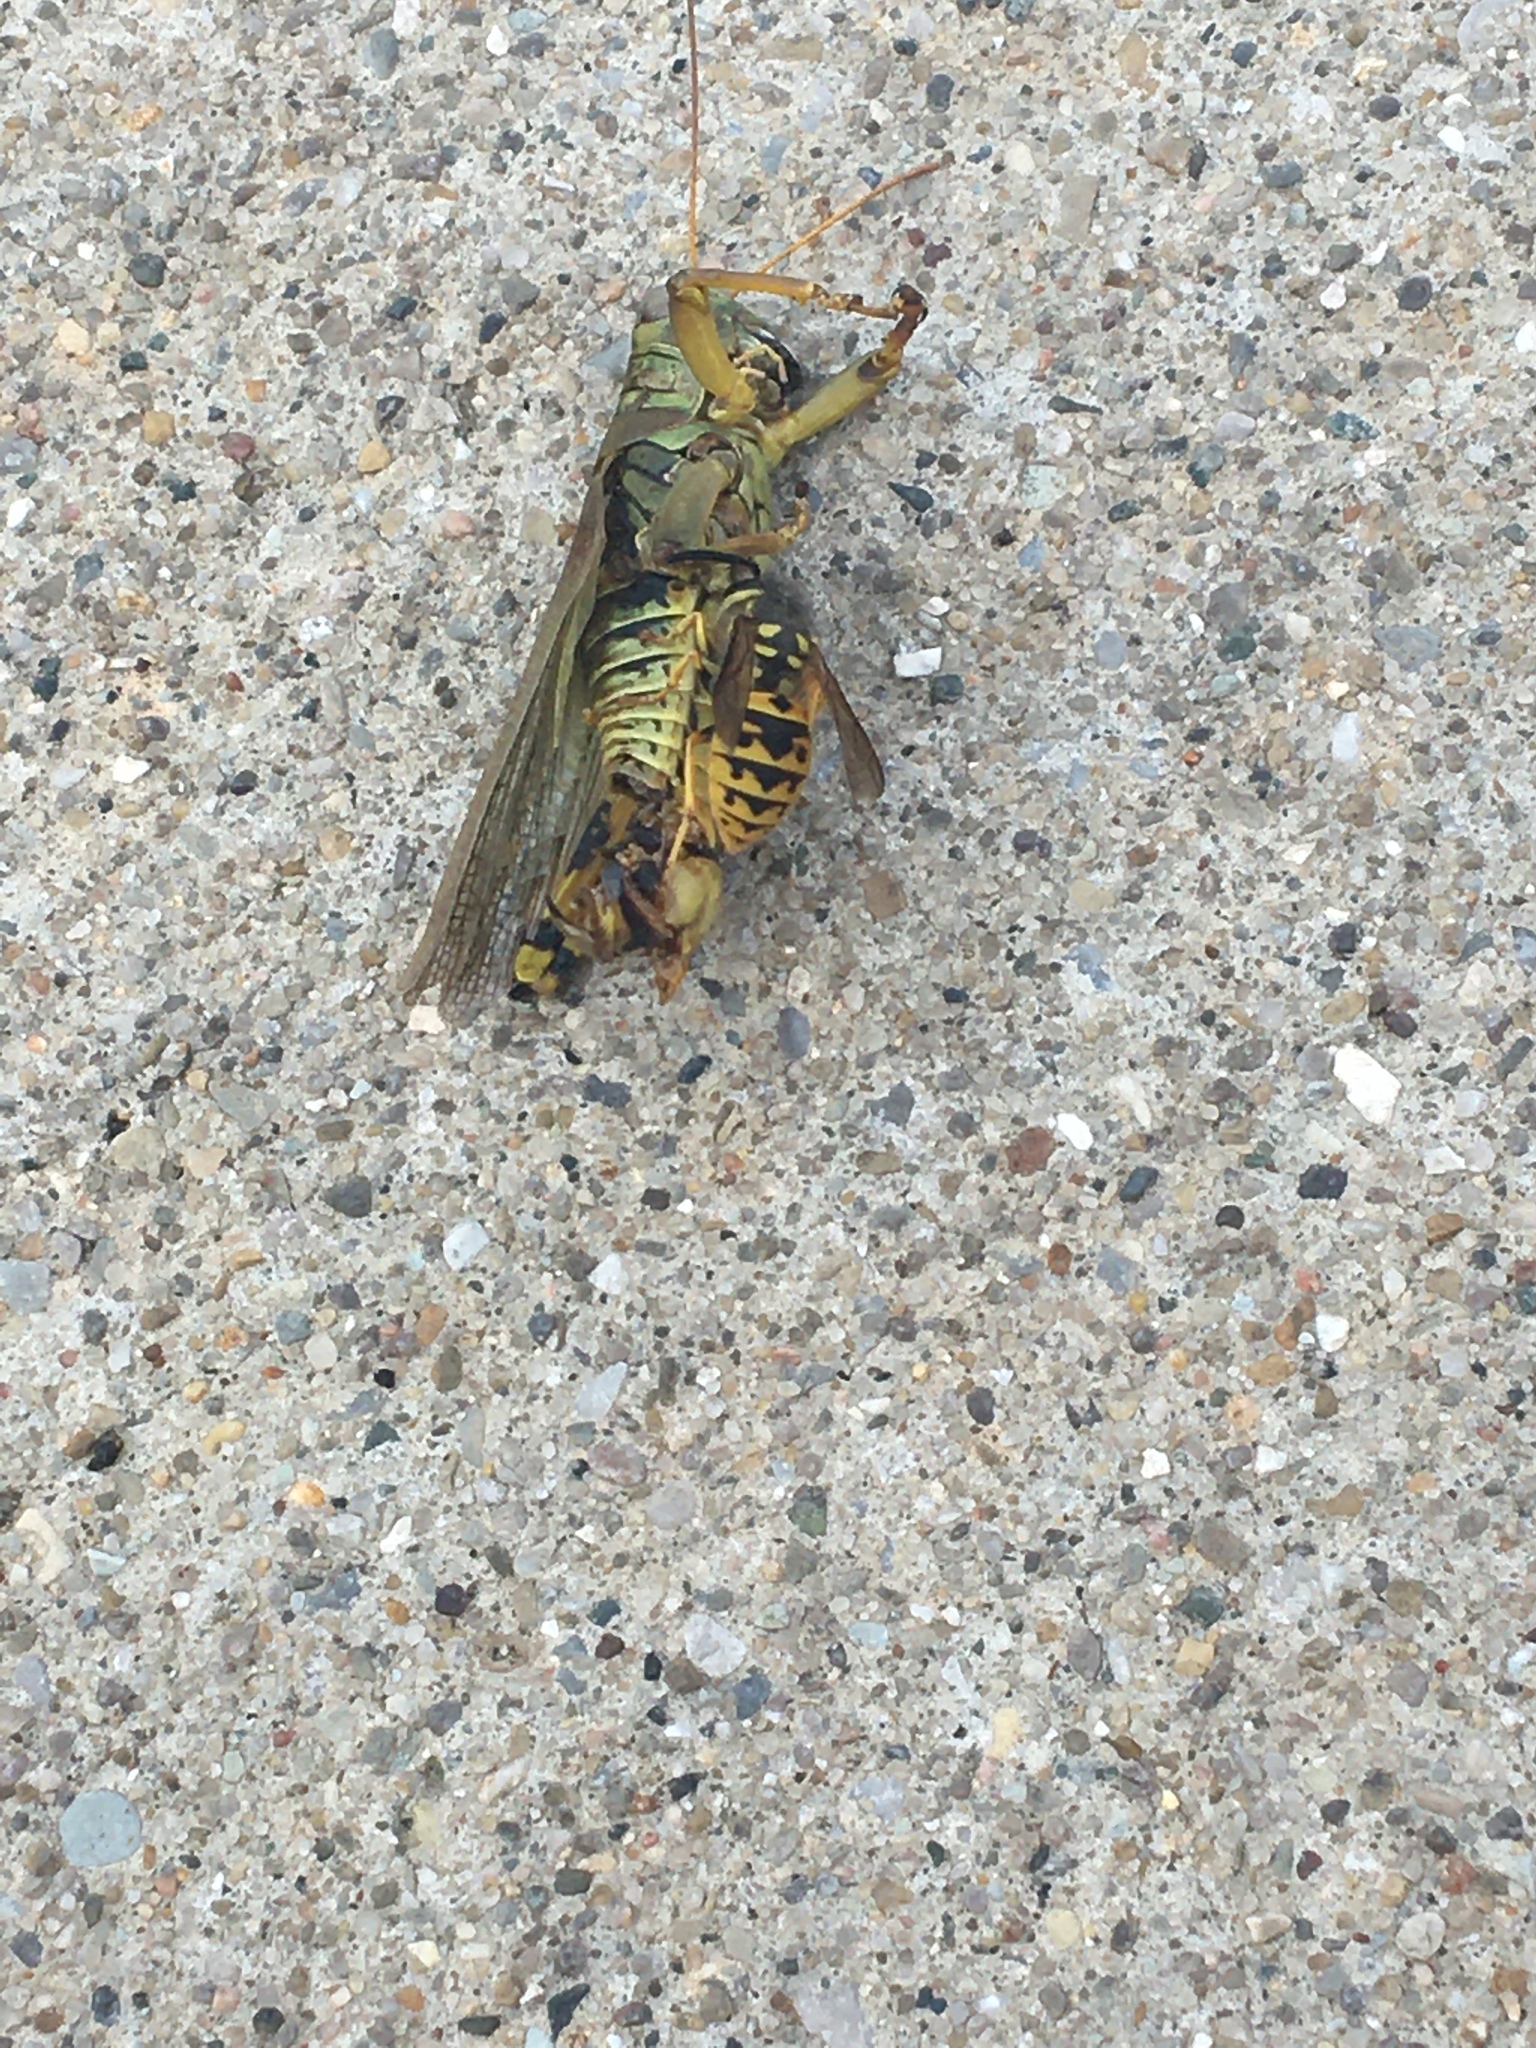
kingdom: Animalia
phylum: Arthropoda
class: Insecta
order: Hymenoptera
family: Vespidae
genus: Vespula
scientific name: Vespula germanica
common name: German wasp
